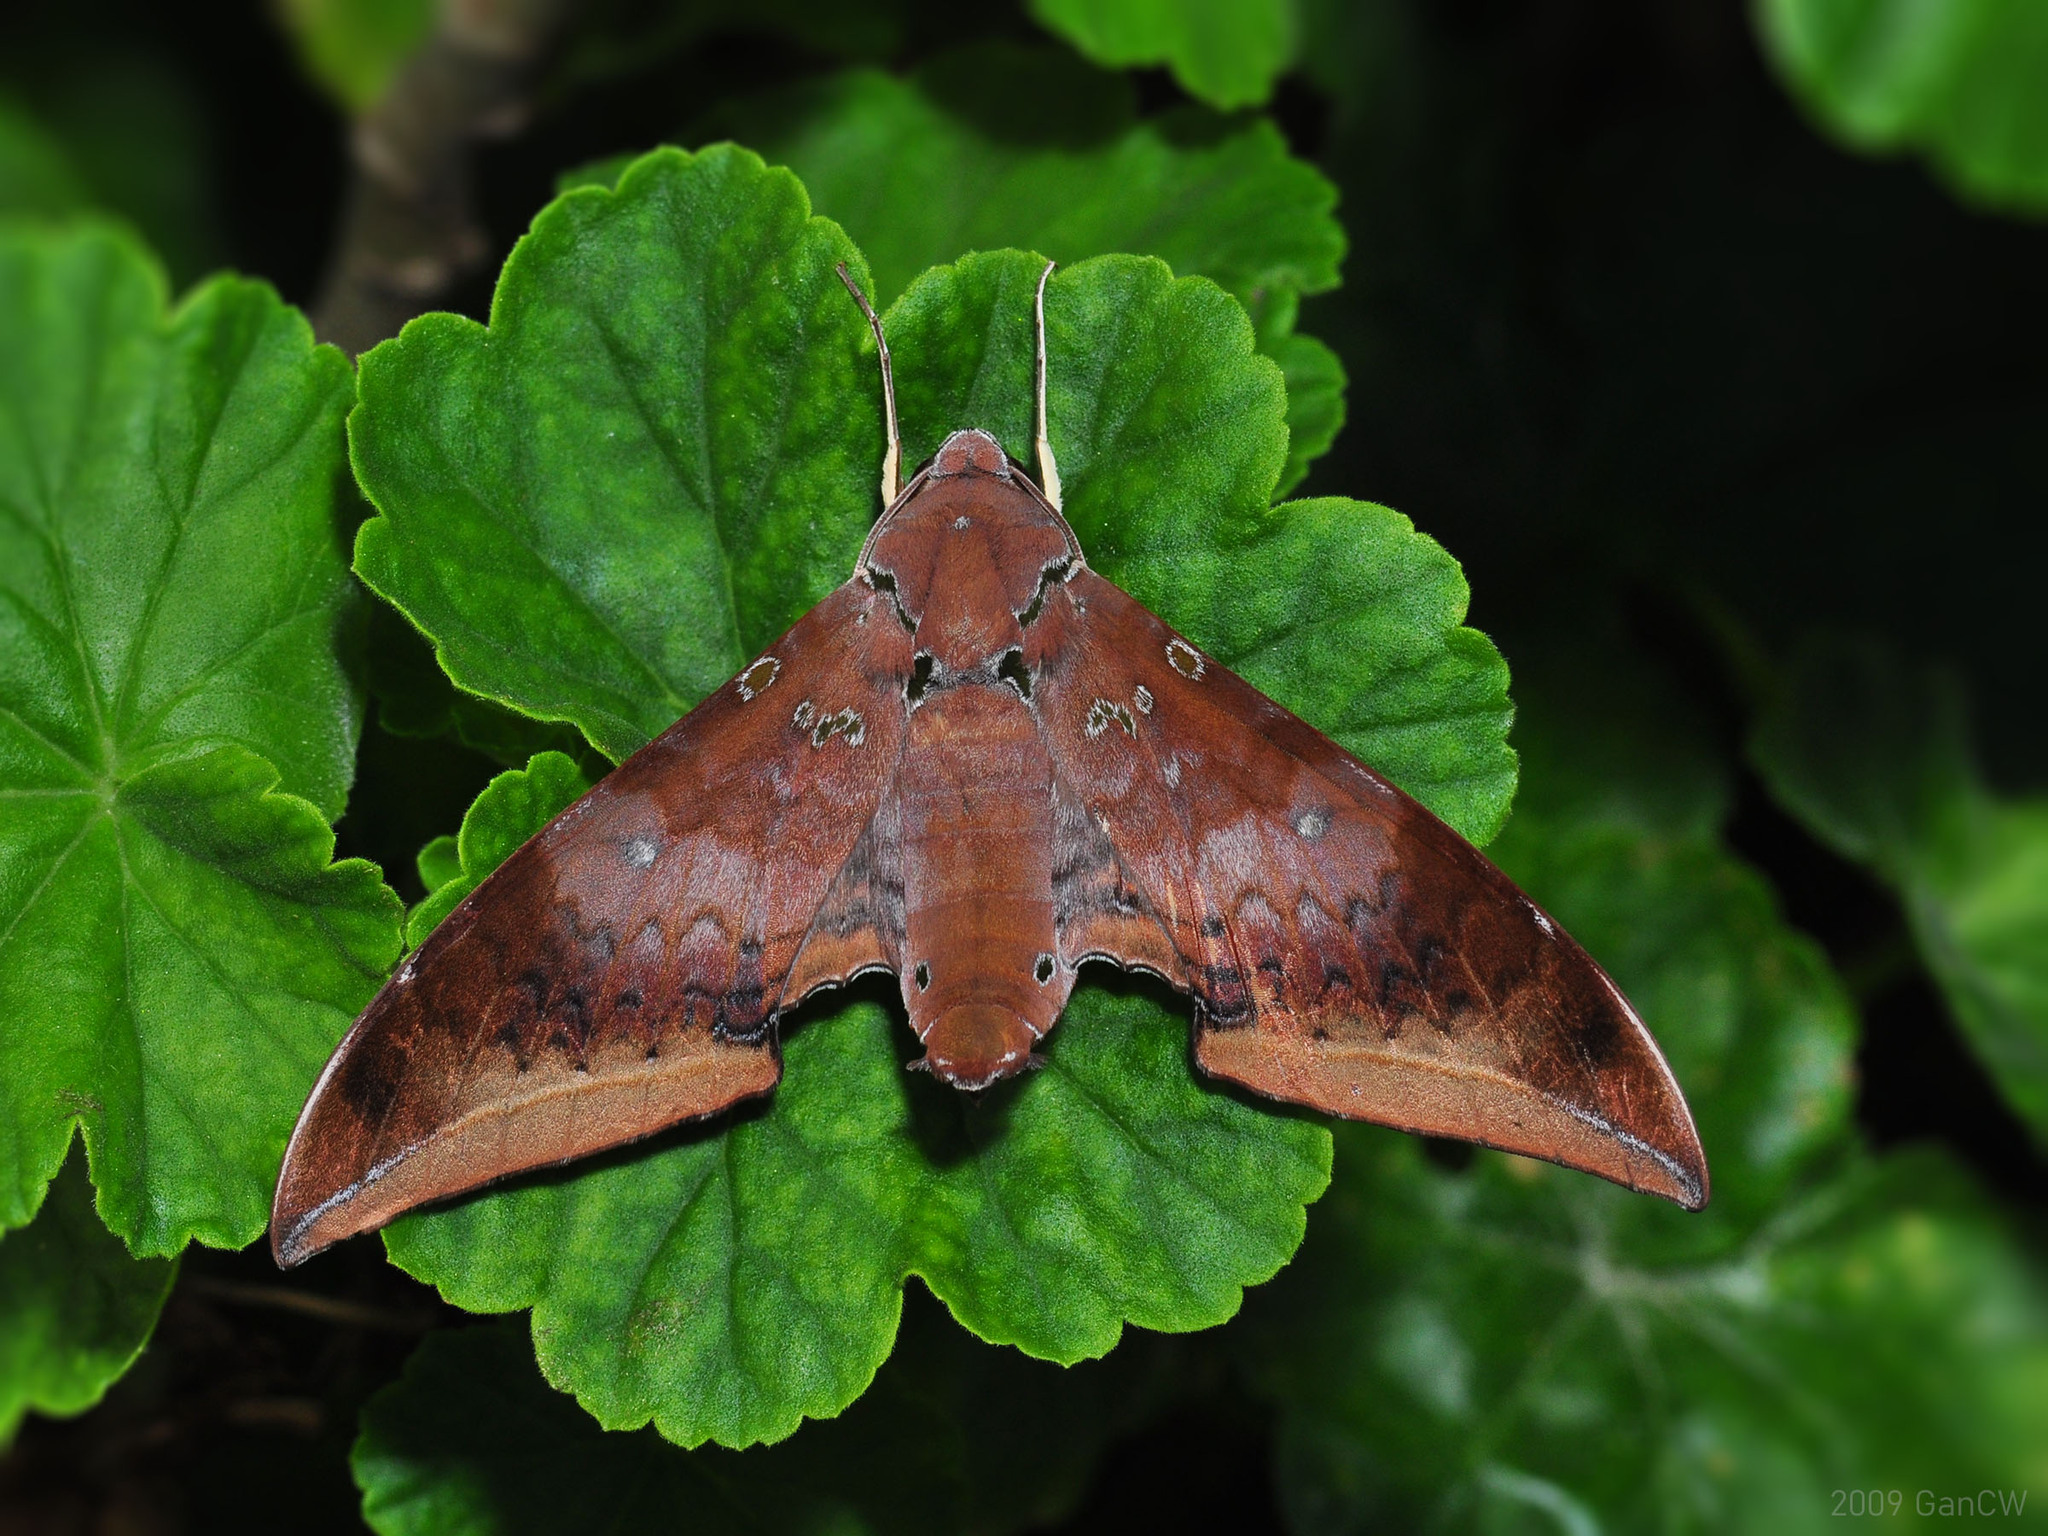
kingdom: Animalia
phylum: Arthropoda
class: Insecta
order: Lepidoptera
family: Sphingidae
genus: Ambulyx
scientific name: Ambulyx moorei
